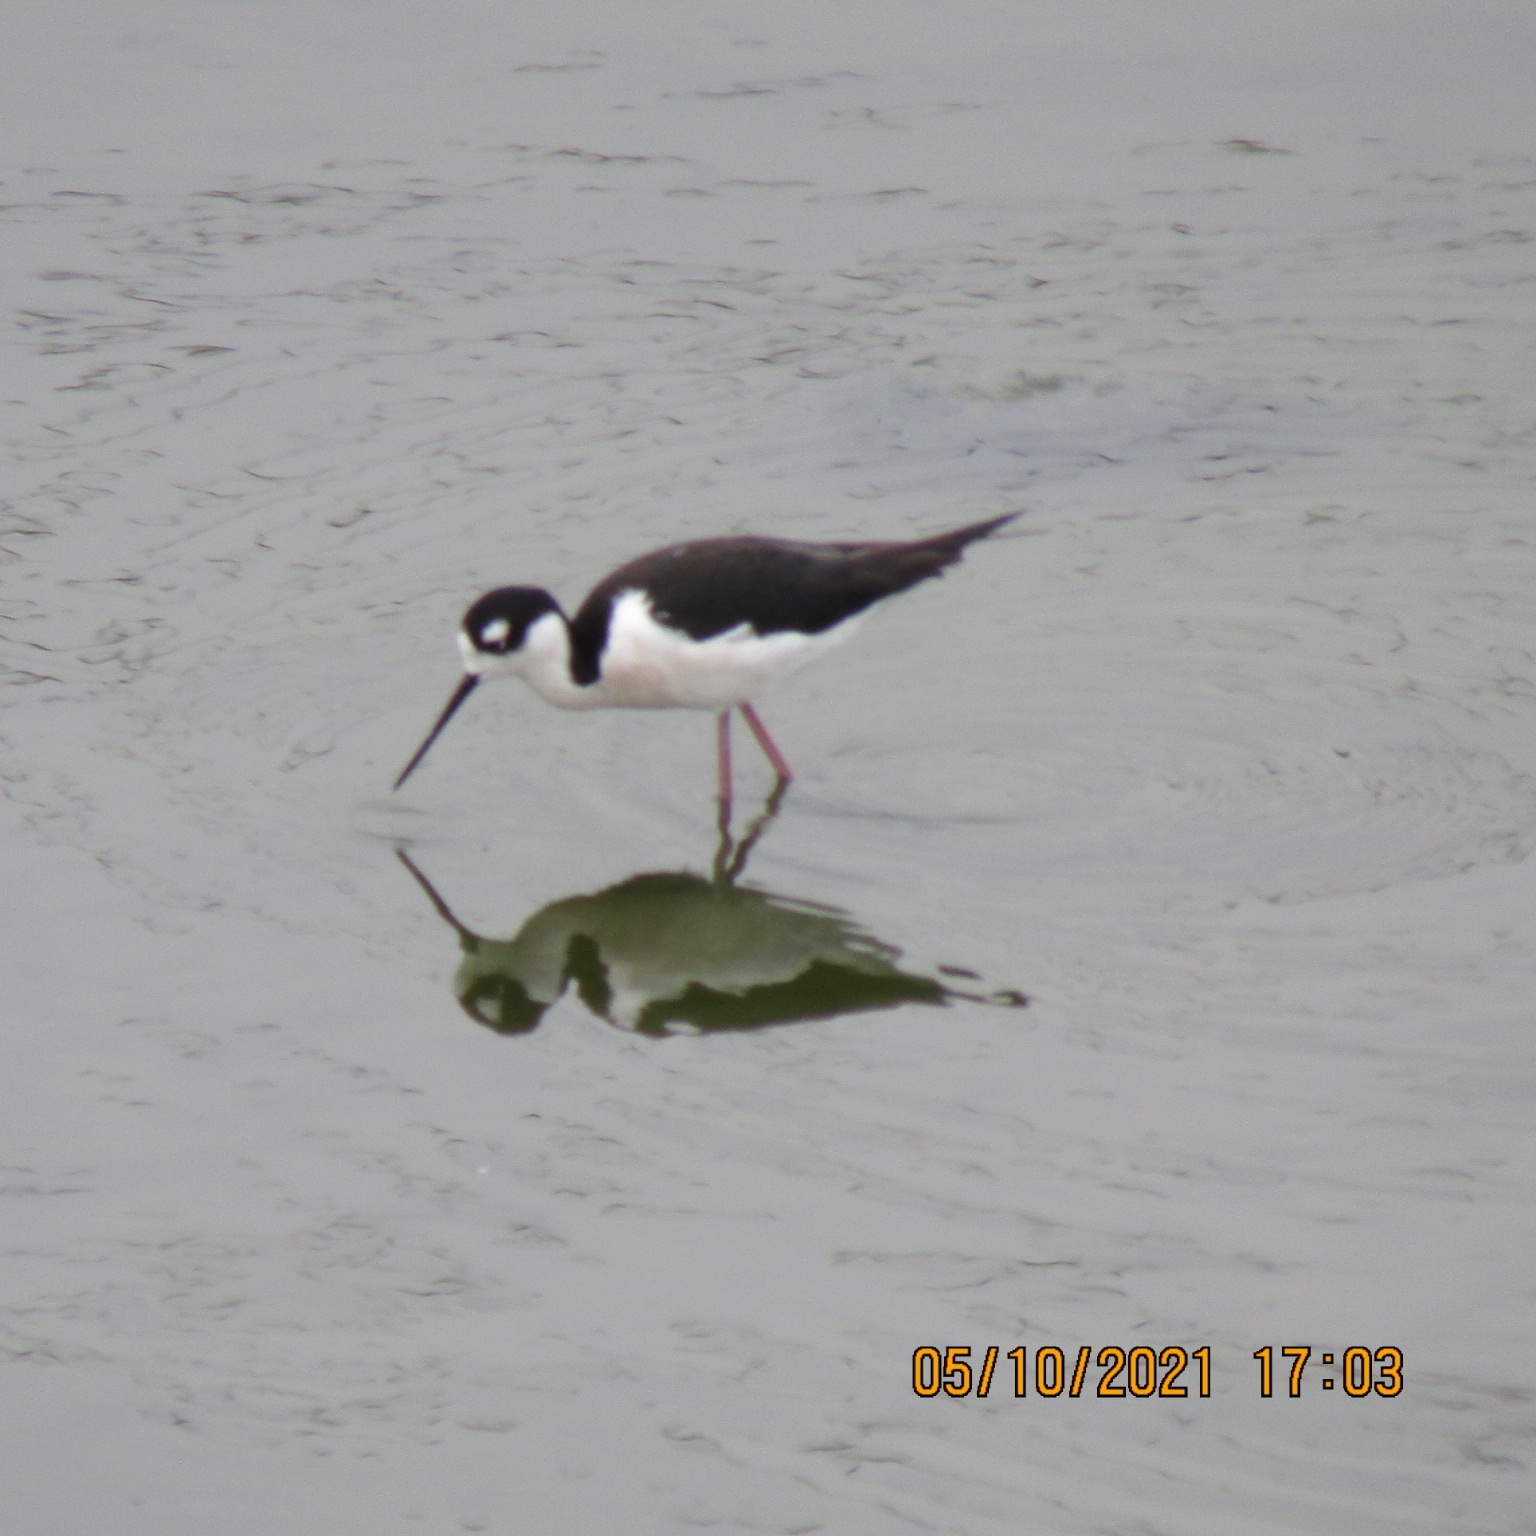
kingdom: Animalia
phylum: Chordata
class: Aves
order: Charadriiformes
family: Recurvirostridae
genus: Himantopus
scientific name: Himantopus mexicanus
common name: Black-necked stilt
